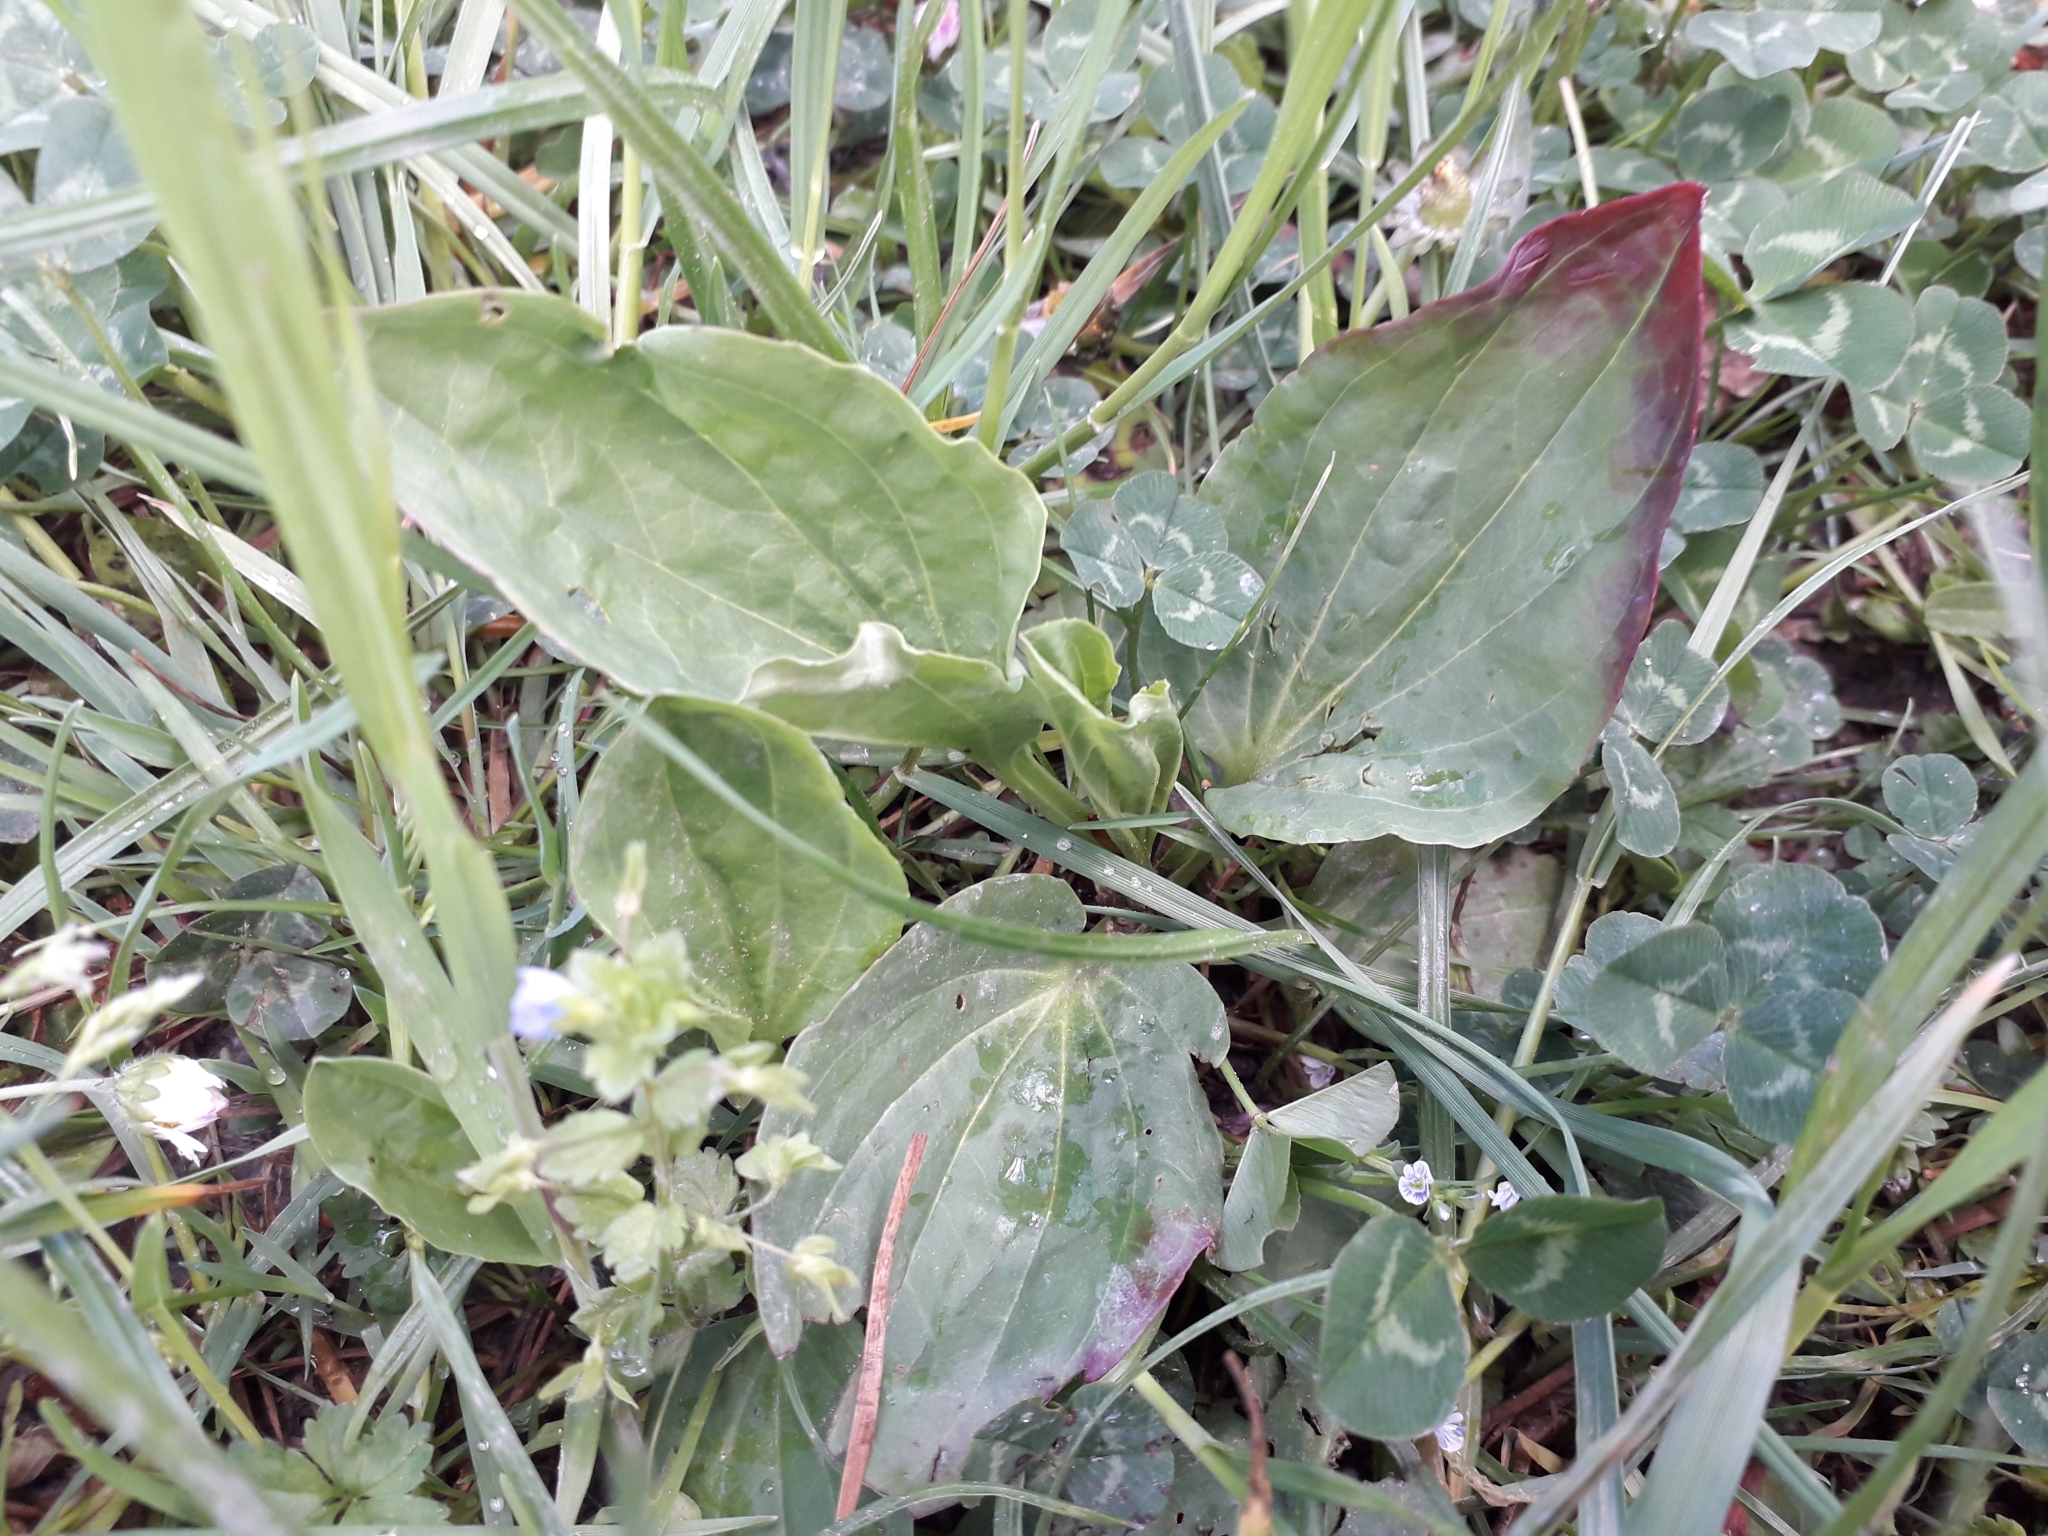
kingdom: Plantae
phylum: Tracheophyta
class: Magnoliopsida
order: Lamiales
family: Plantaginaceae
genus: Plantago
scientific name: Plantago major
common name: Common plantain
